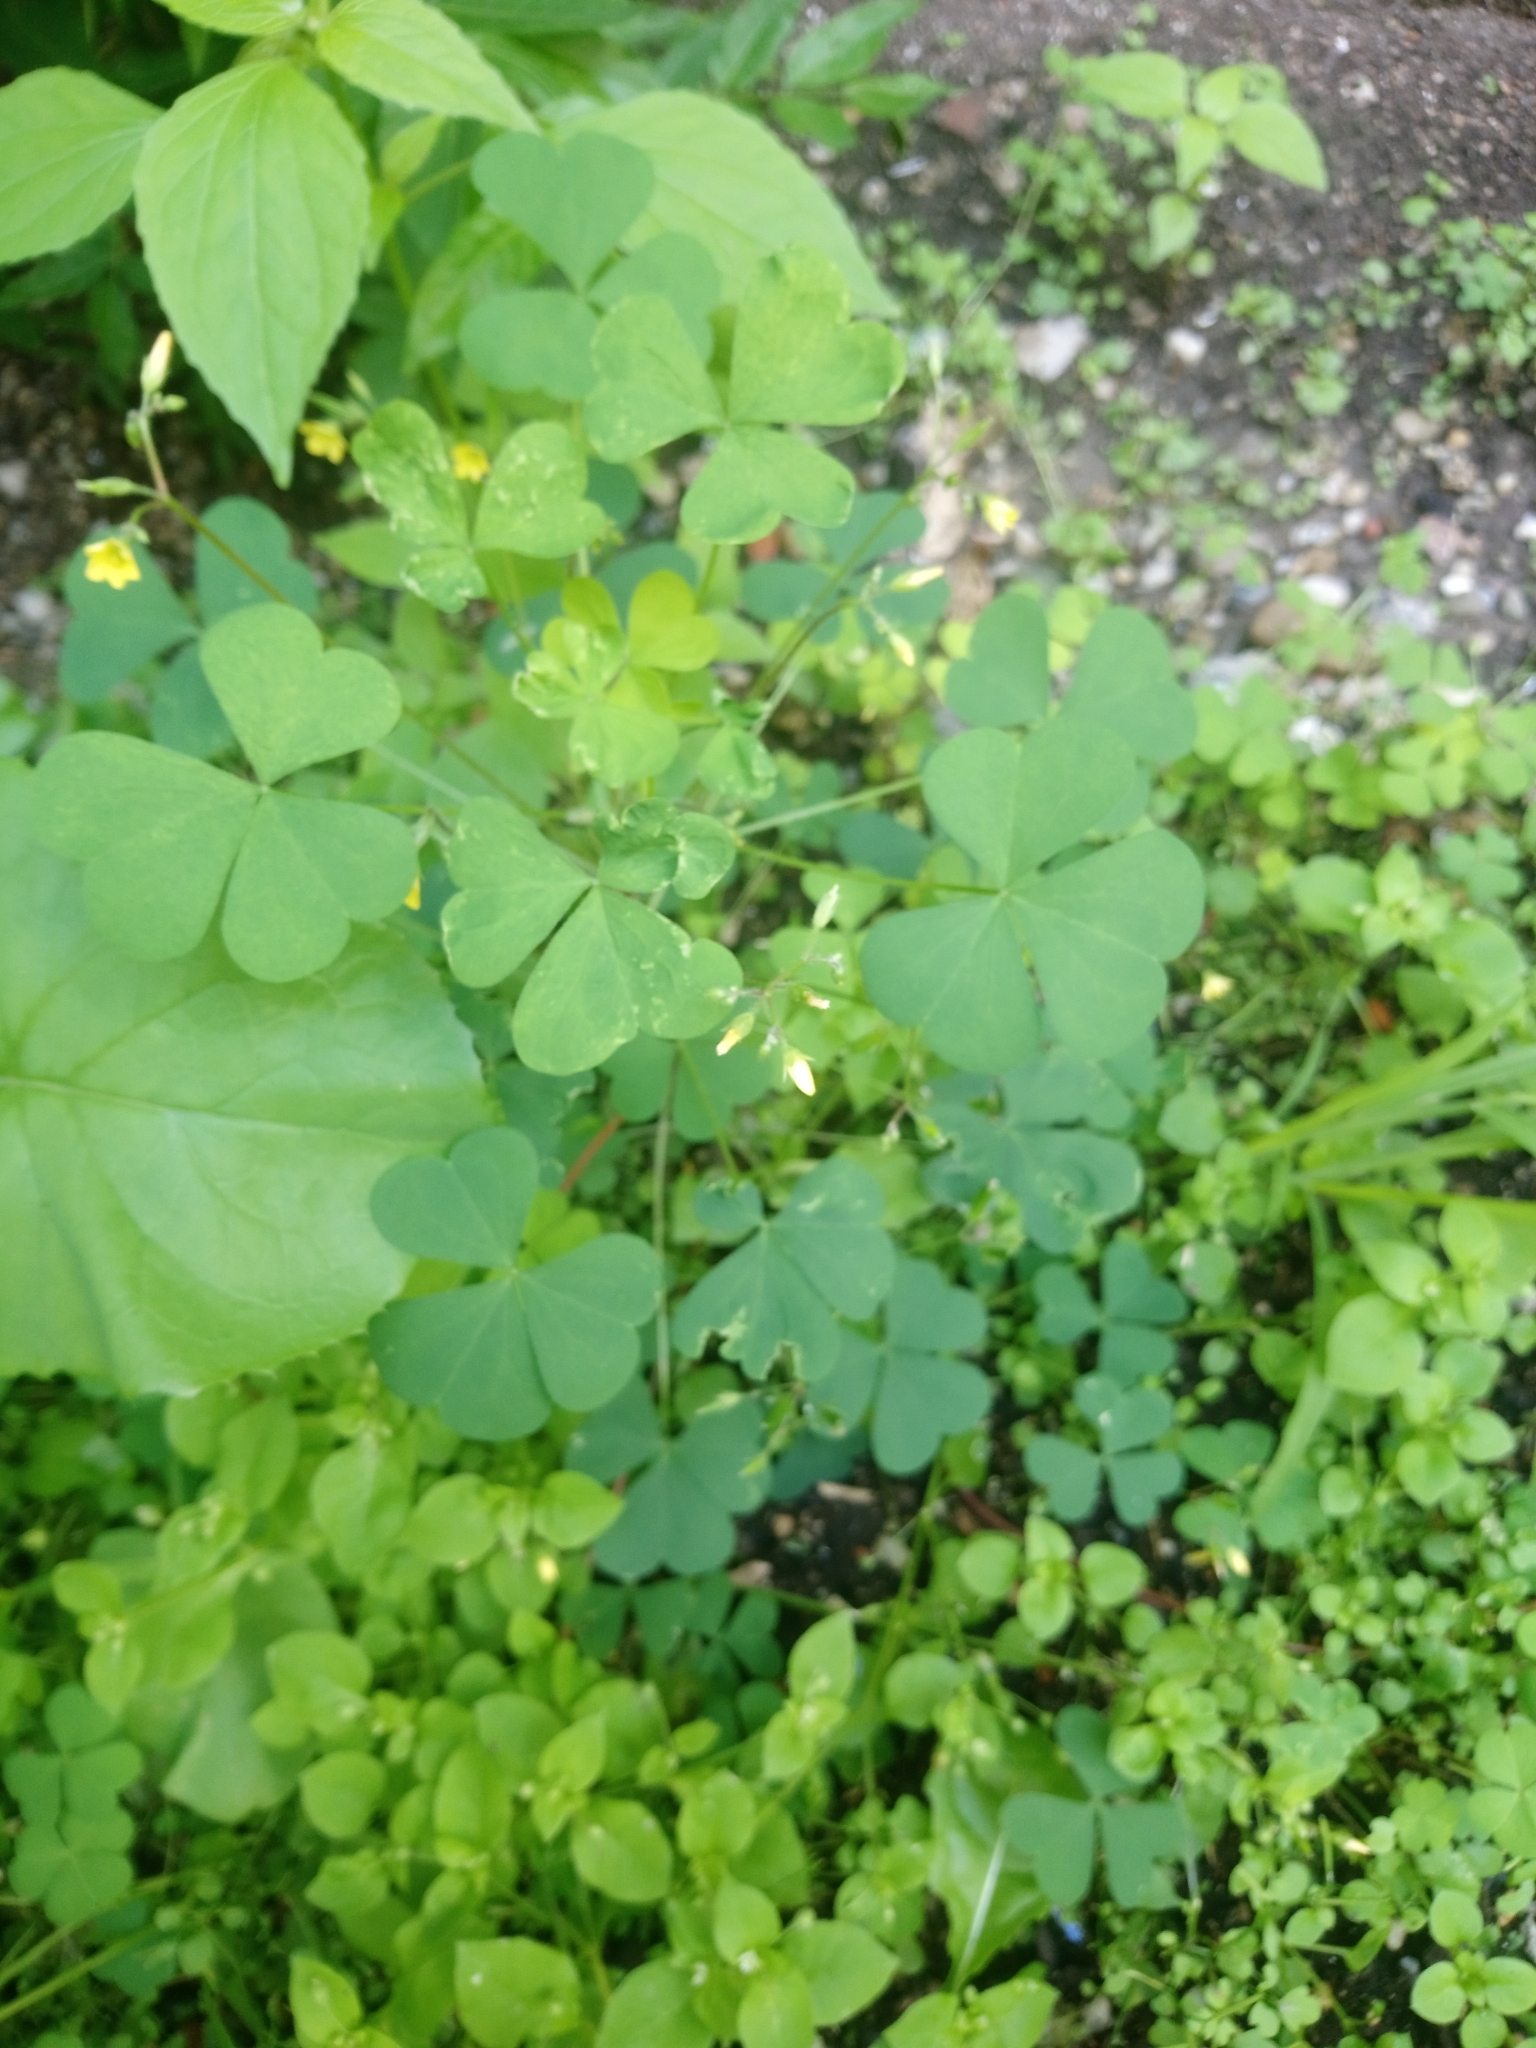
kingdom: Plantae
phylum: Tracheophyta
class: Magnoliopsida
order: Oxalidales
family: Oxalidaceae
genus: Oxalis
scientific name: Oxalis stricta
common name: Upright yellow-sorrel
